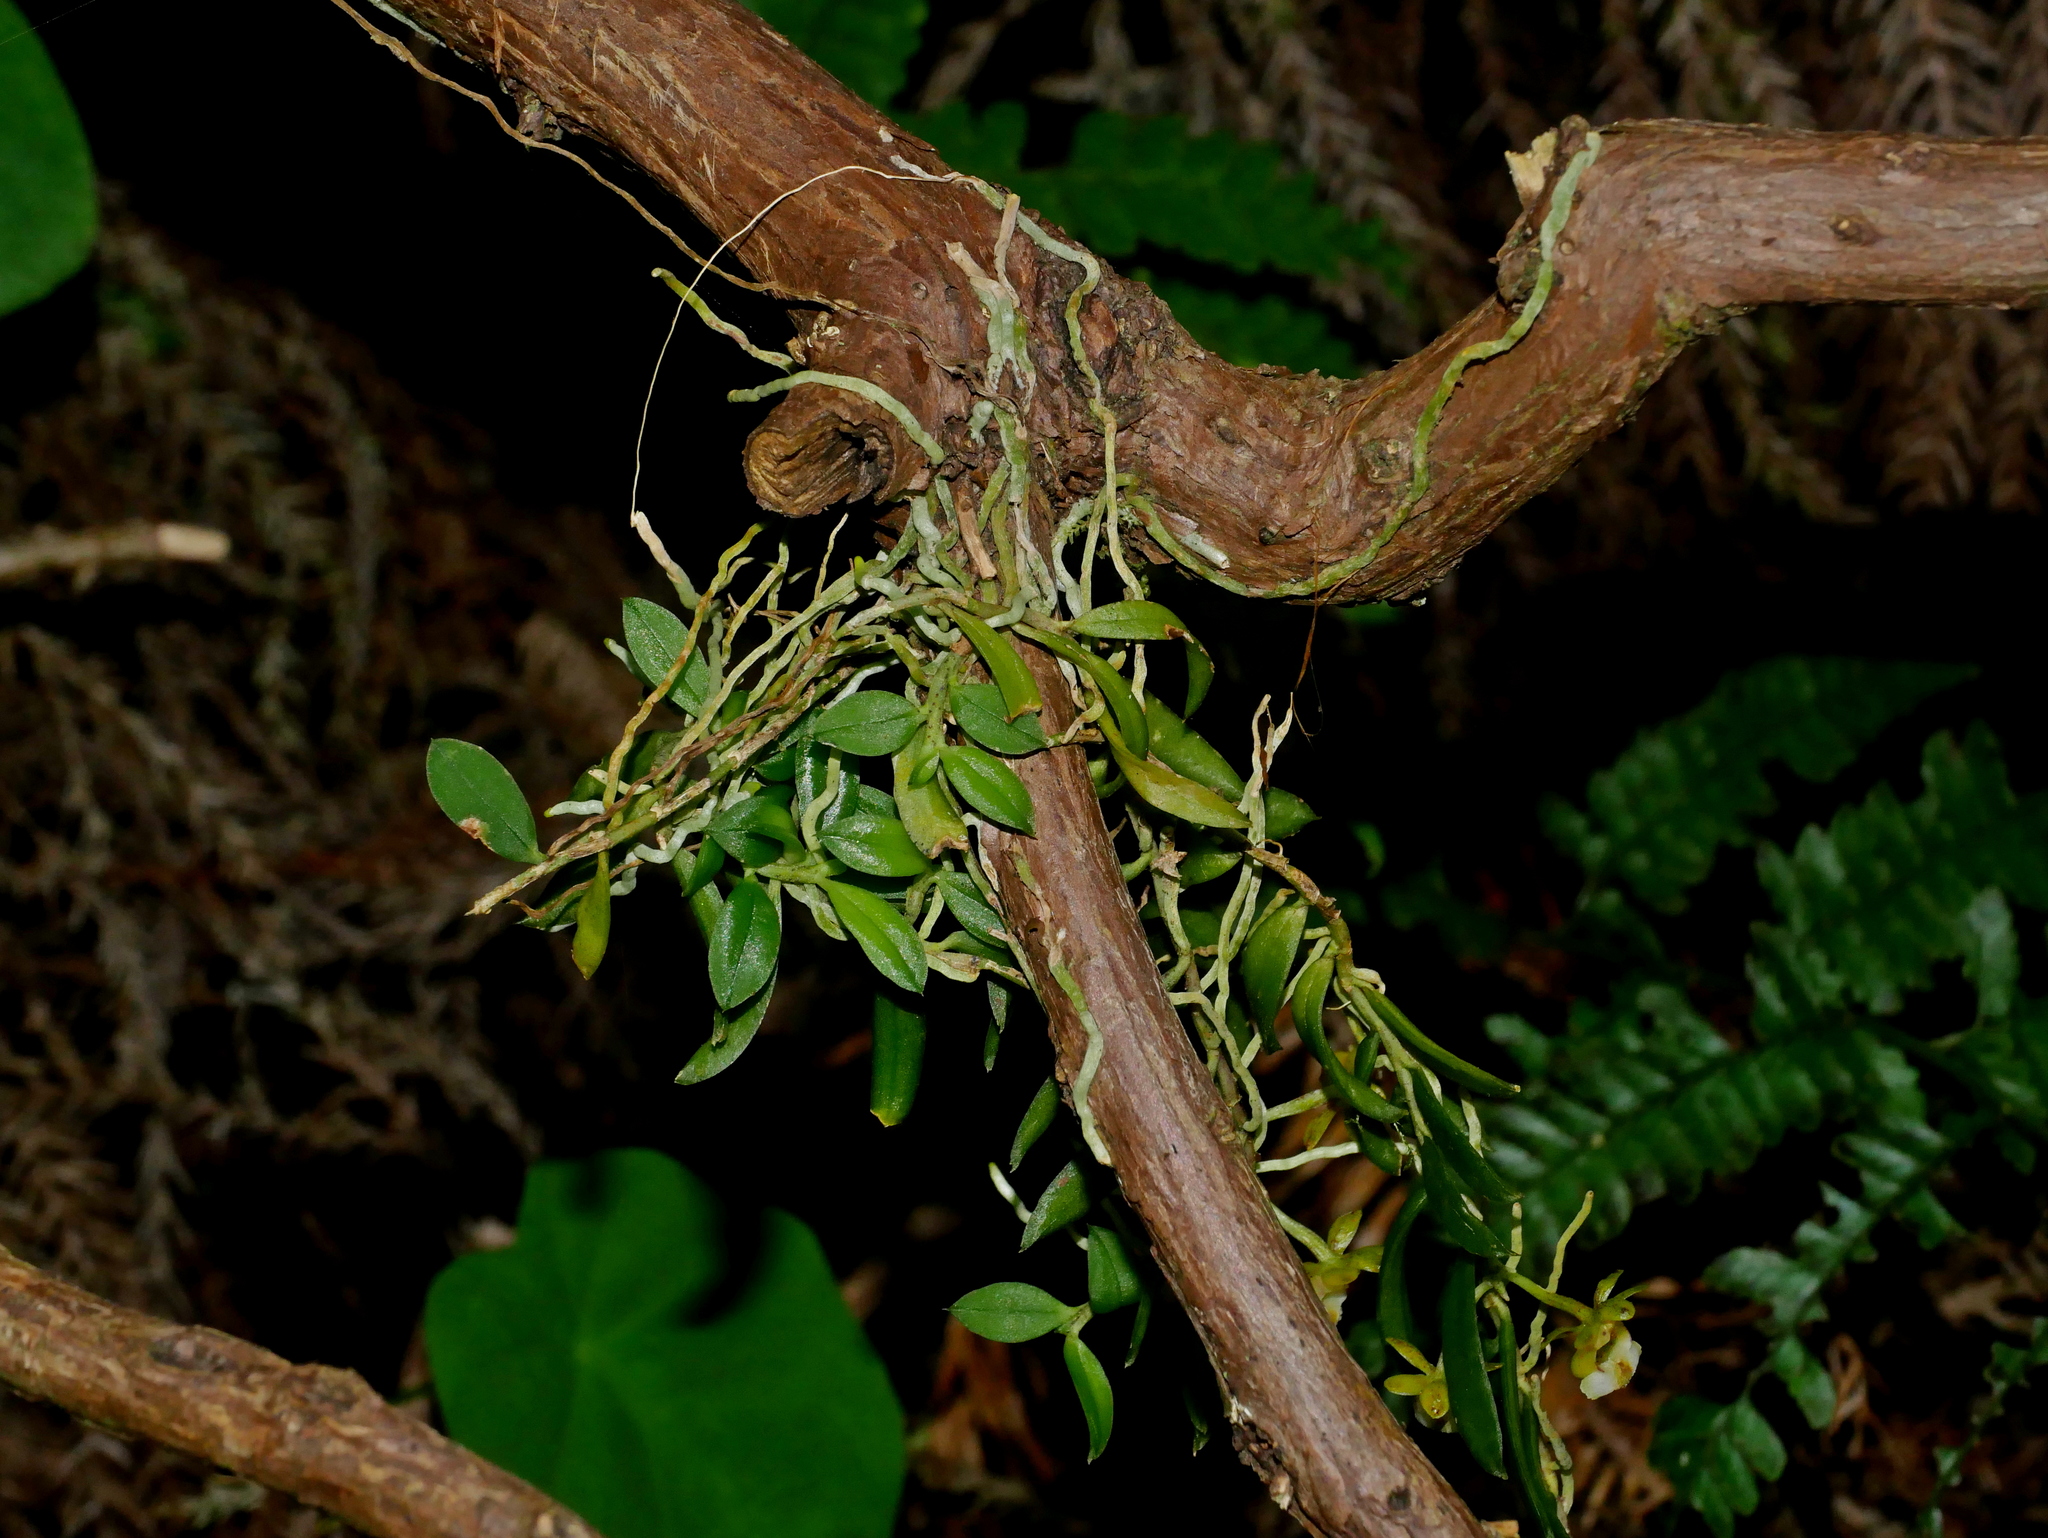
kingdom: Plantae
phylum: Tracheophyta
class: Liliopsida
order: Asparagales
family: Orchidaceae
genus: Gastrochilus
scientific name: Gastrochilus formosanus
